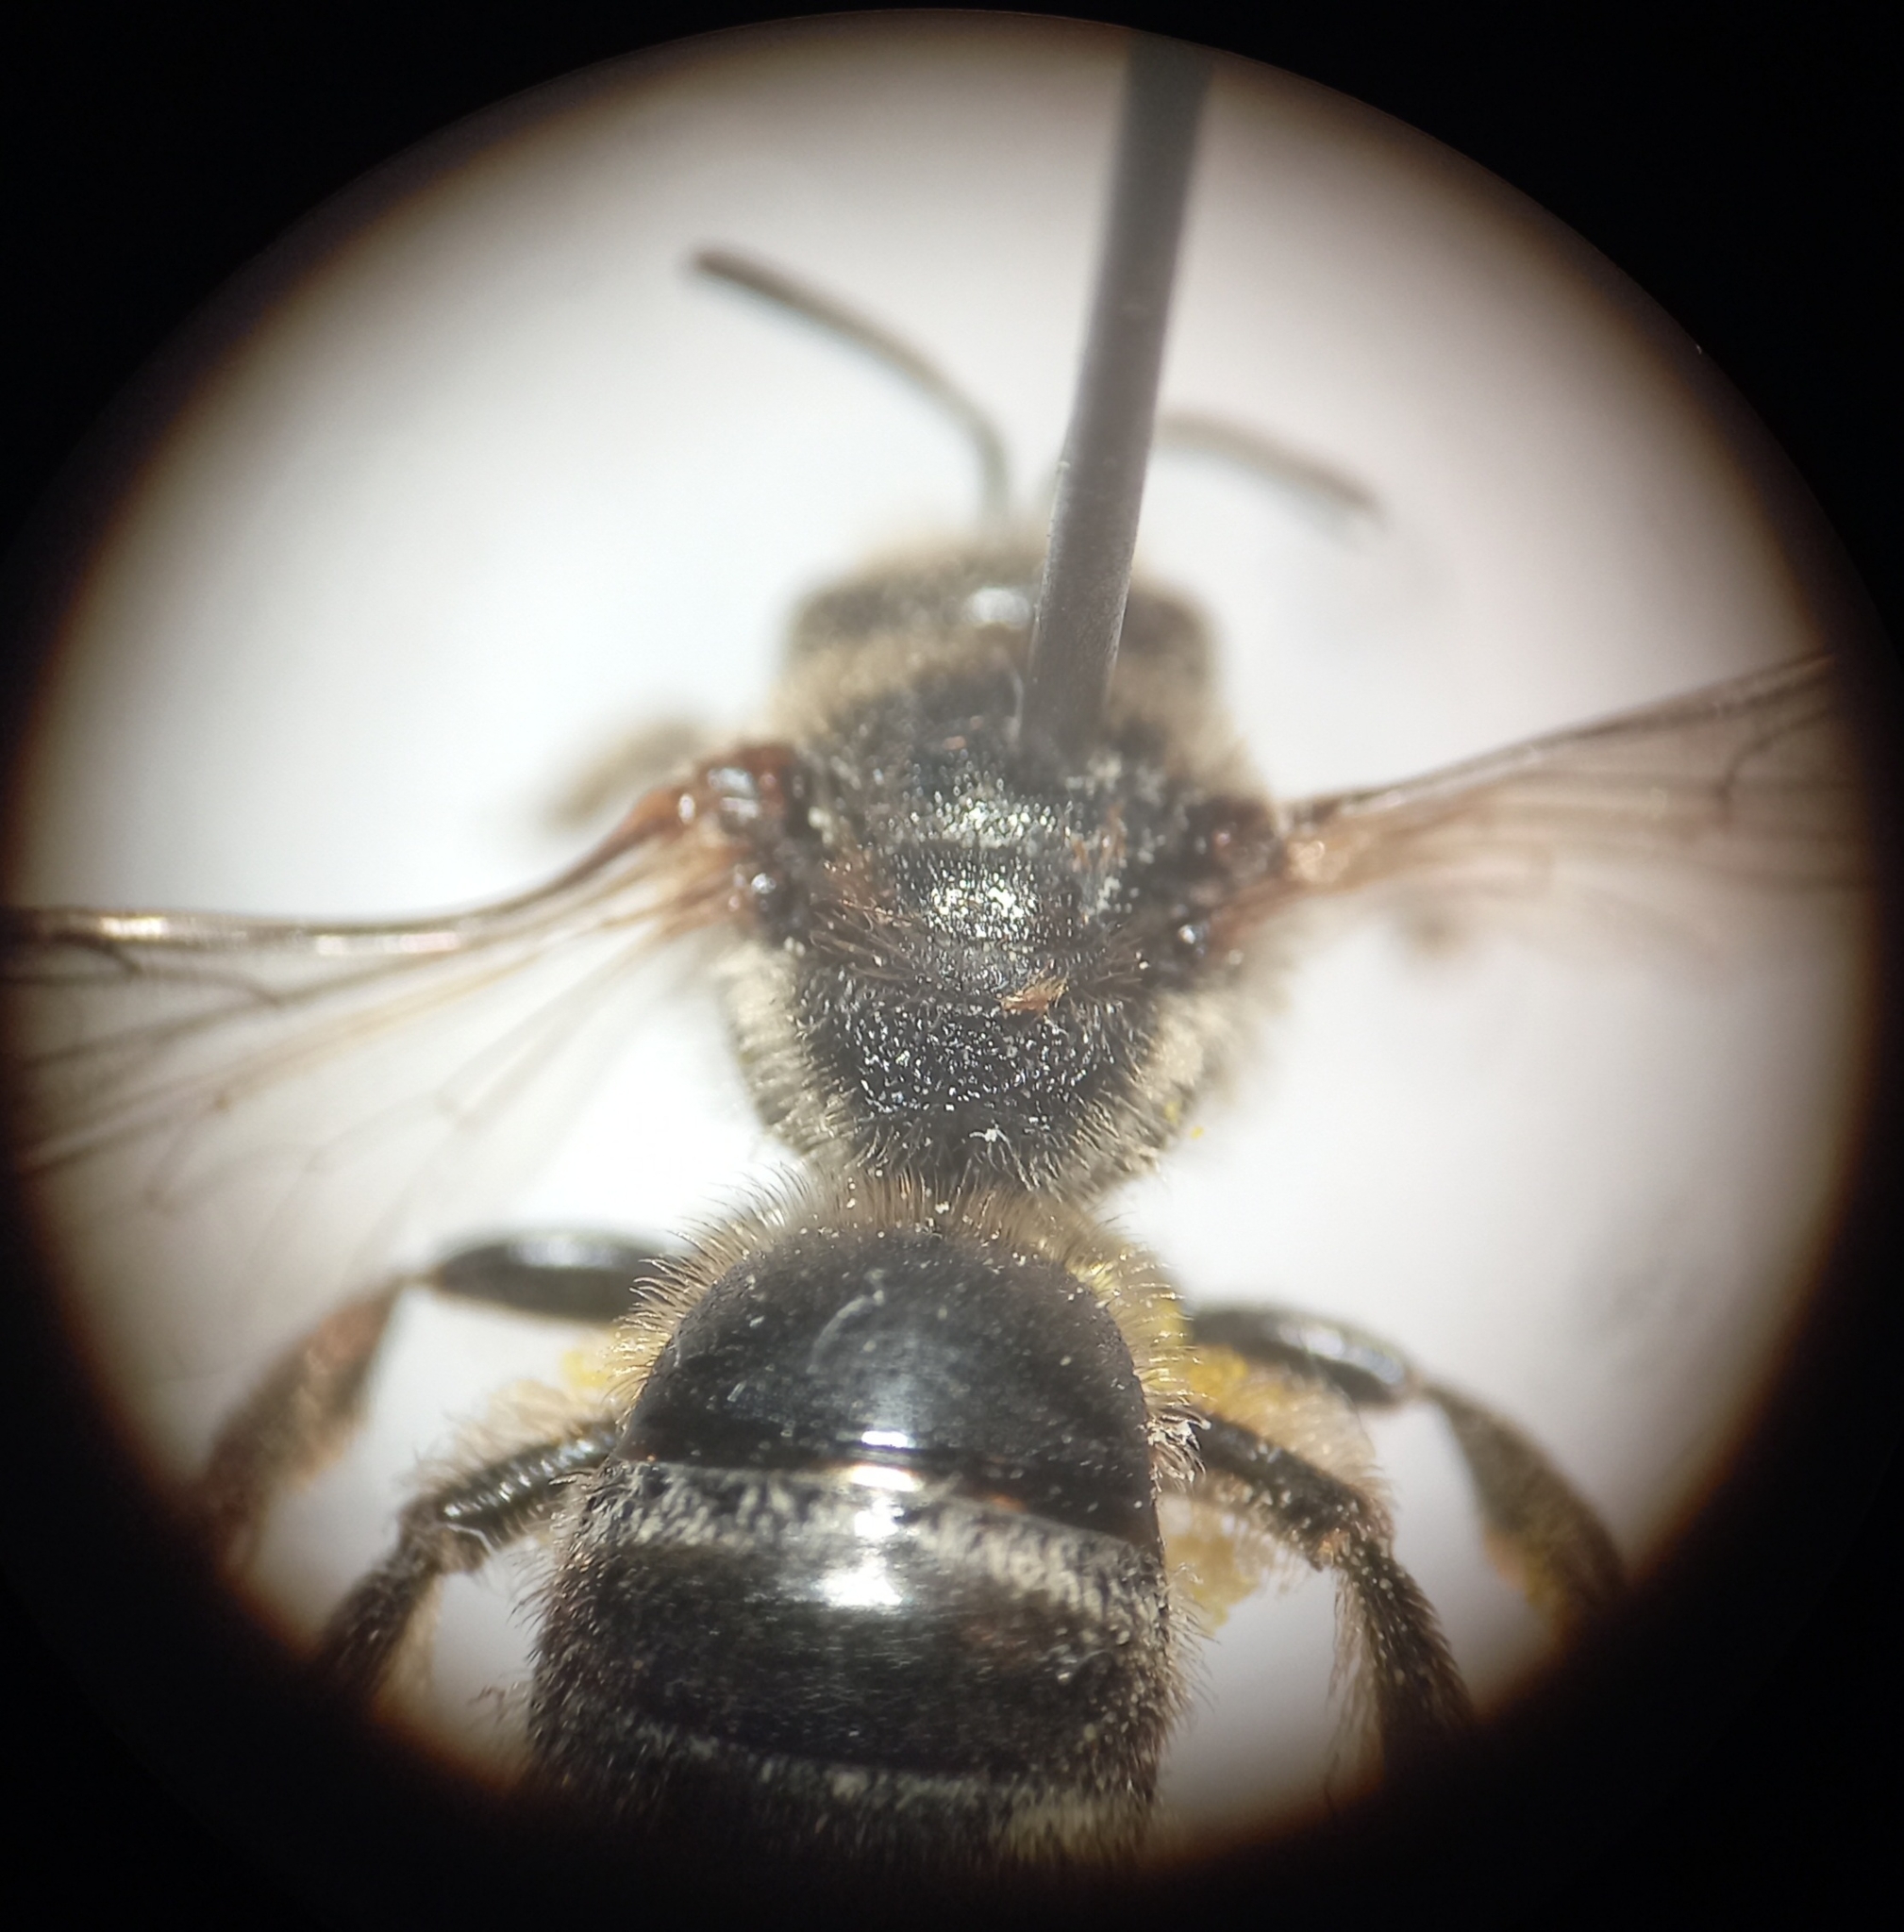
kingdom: Animalia
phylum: Arthropoda
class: Insecta
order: Hymenoptera
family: Halictidae
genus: Lasioglossum
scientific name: Lasioglossum leucozonium
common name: White-zoned furrow bee
